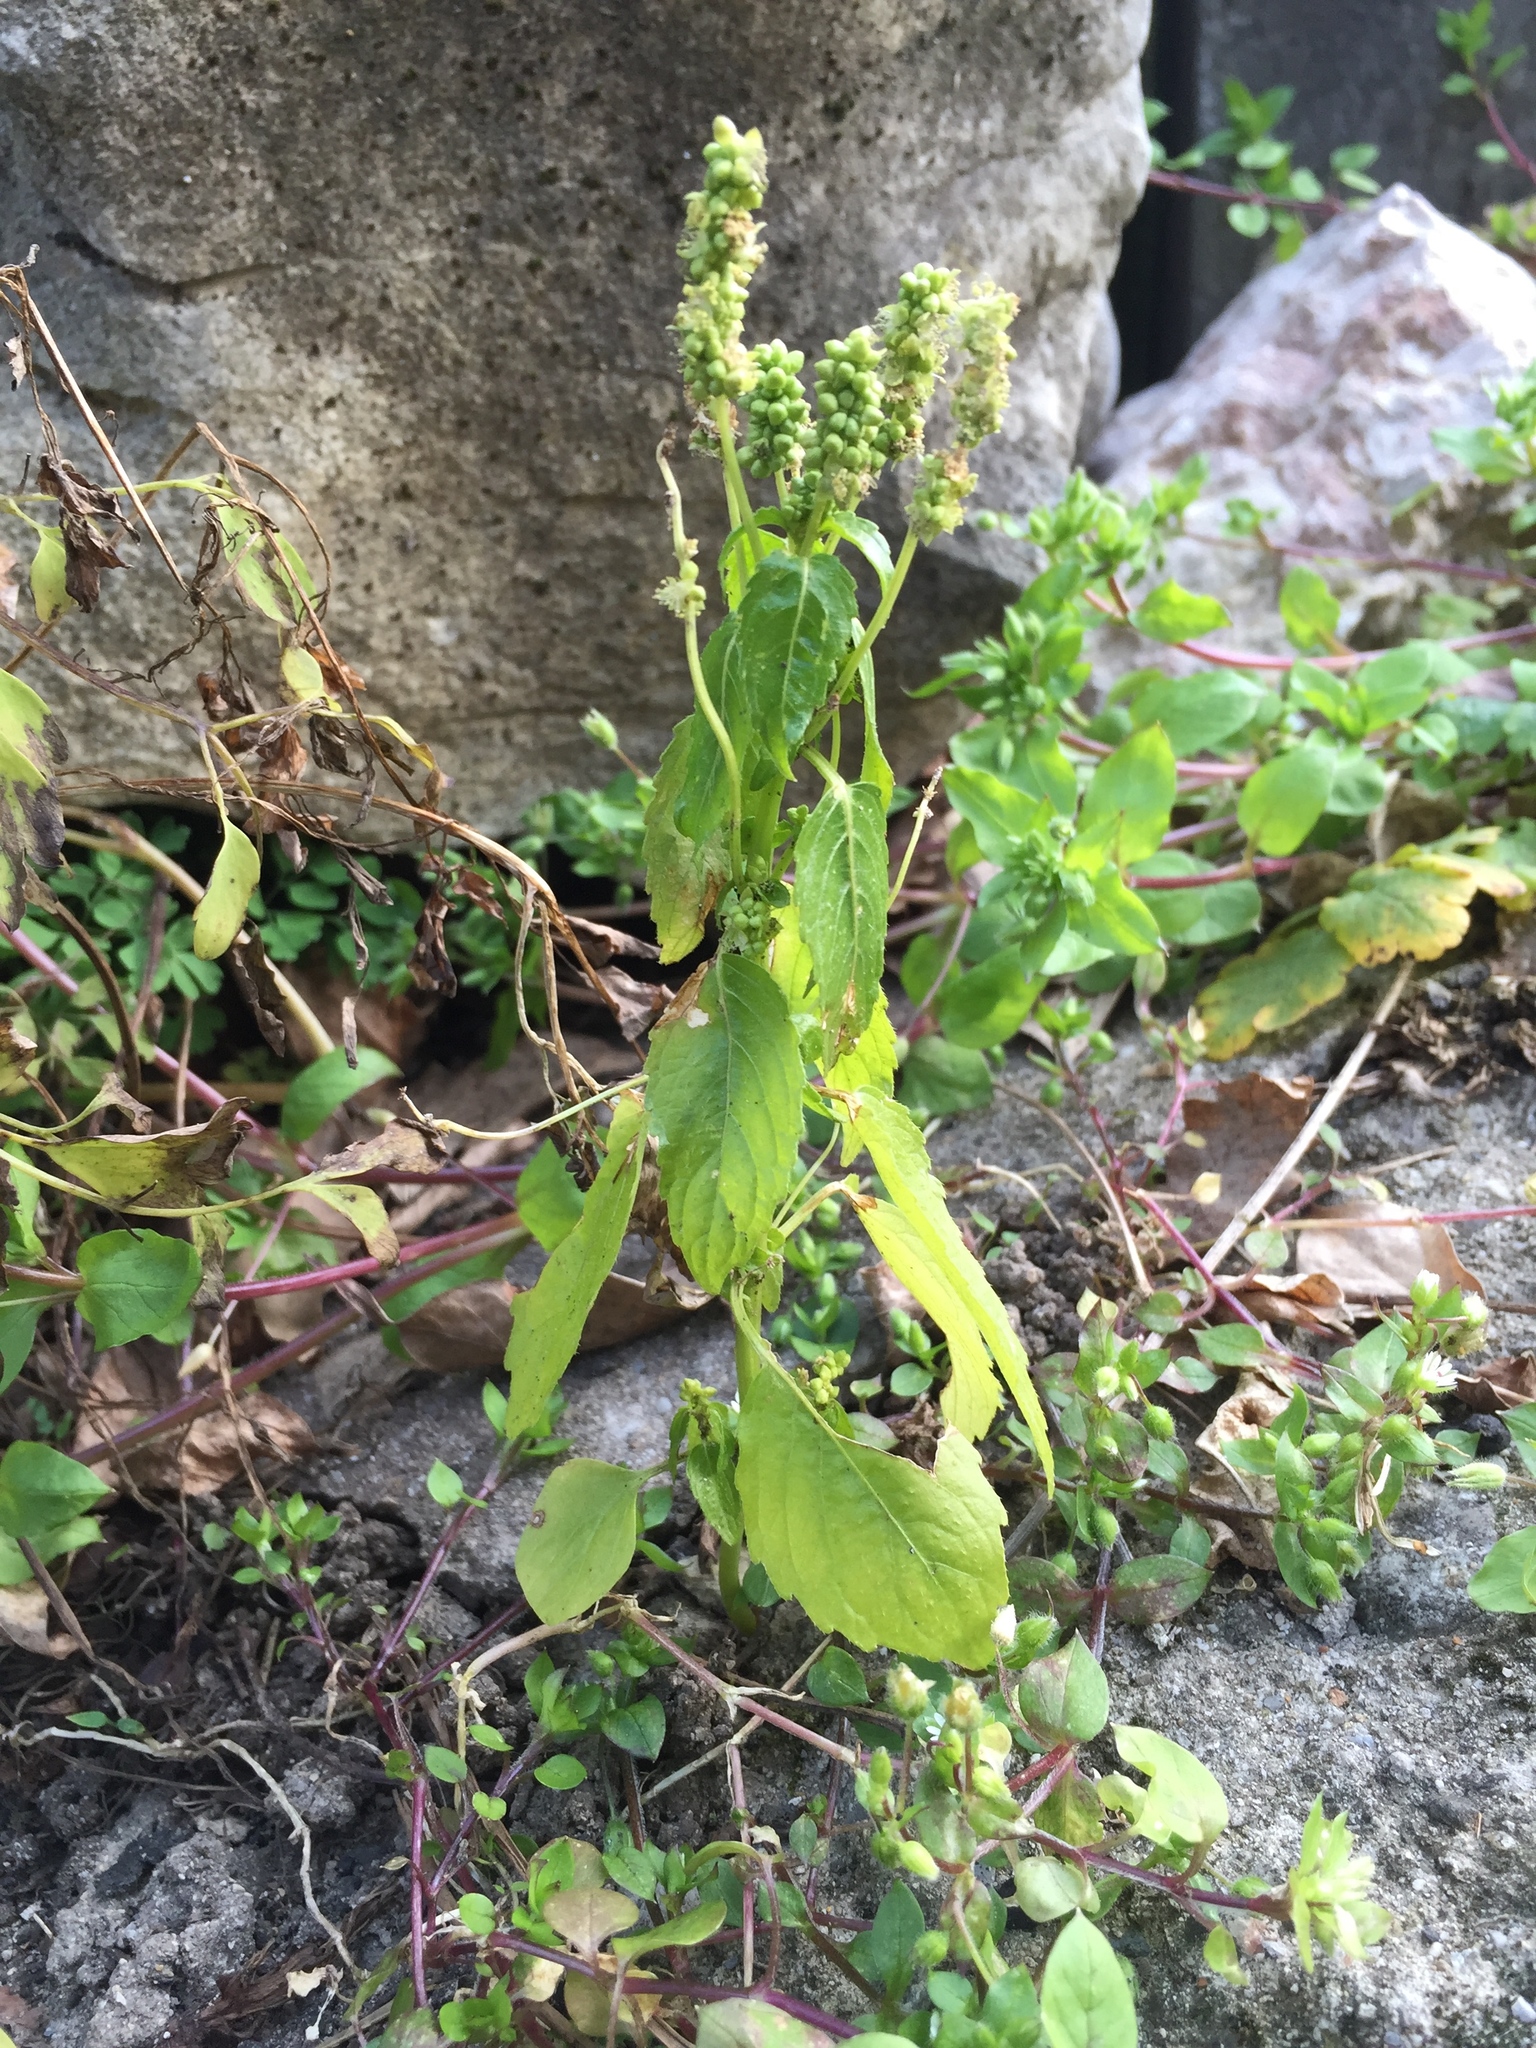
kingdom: Plantae
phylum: Tracheophyta
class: Magnoliopsida
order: Malpighiales
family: Euphorbiaceae
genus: Mercurialis
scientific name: Mercurialis annua
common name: Annual mercury
